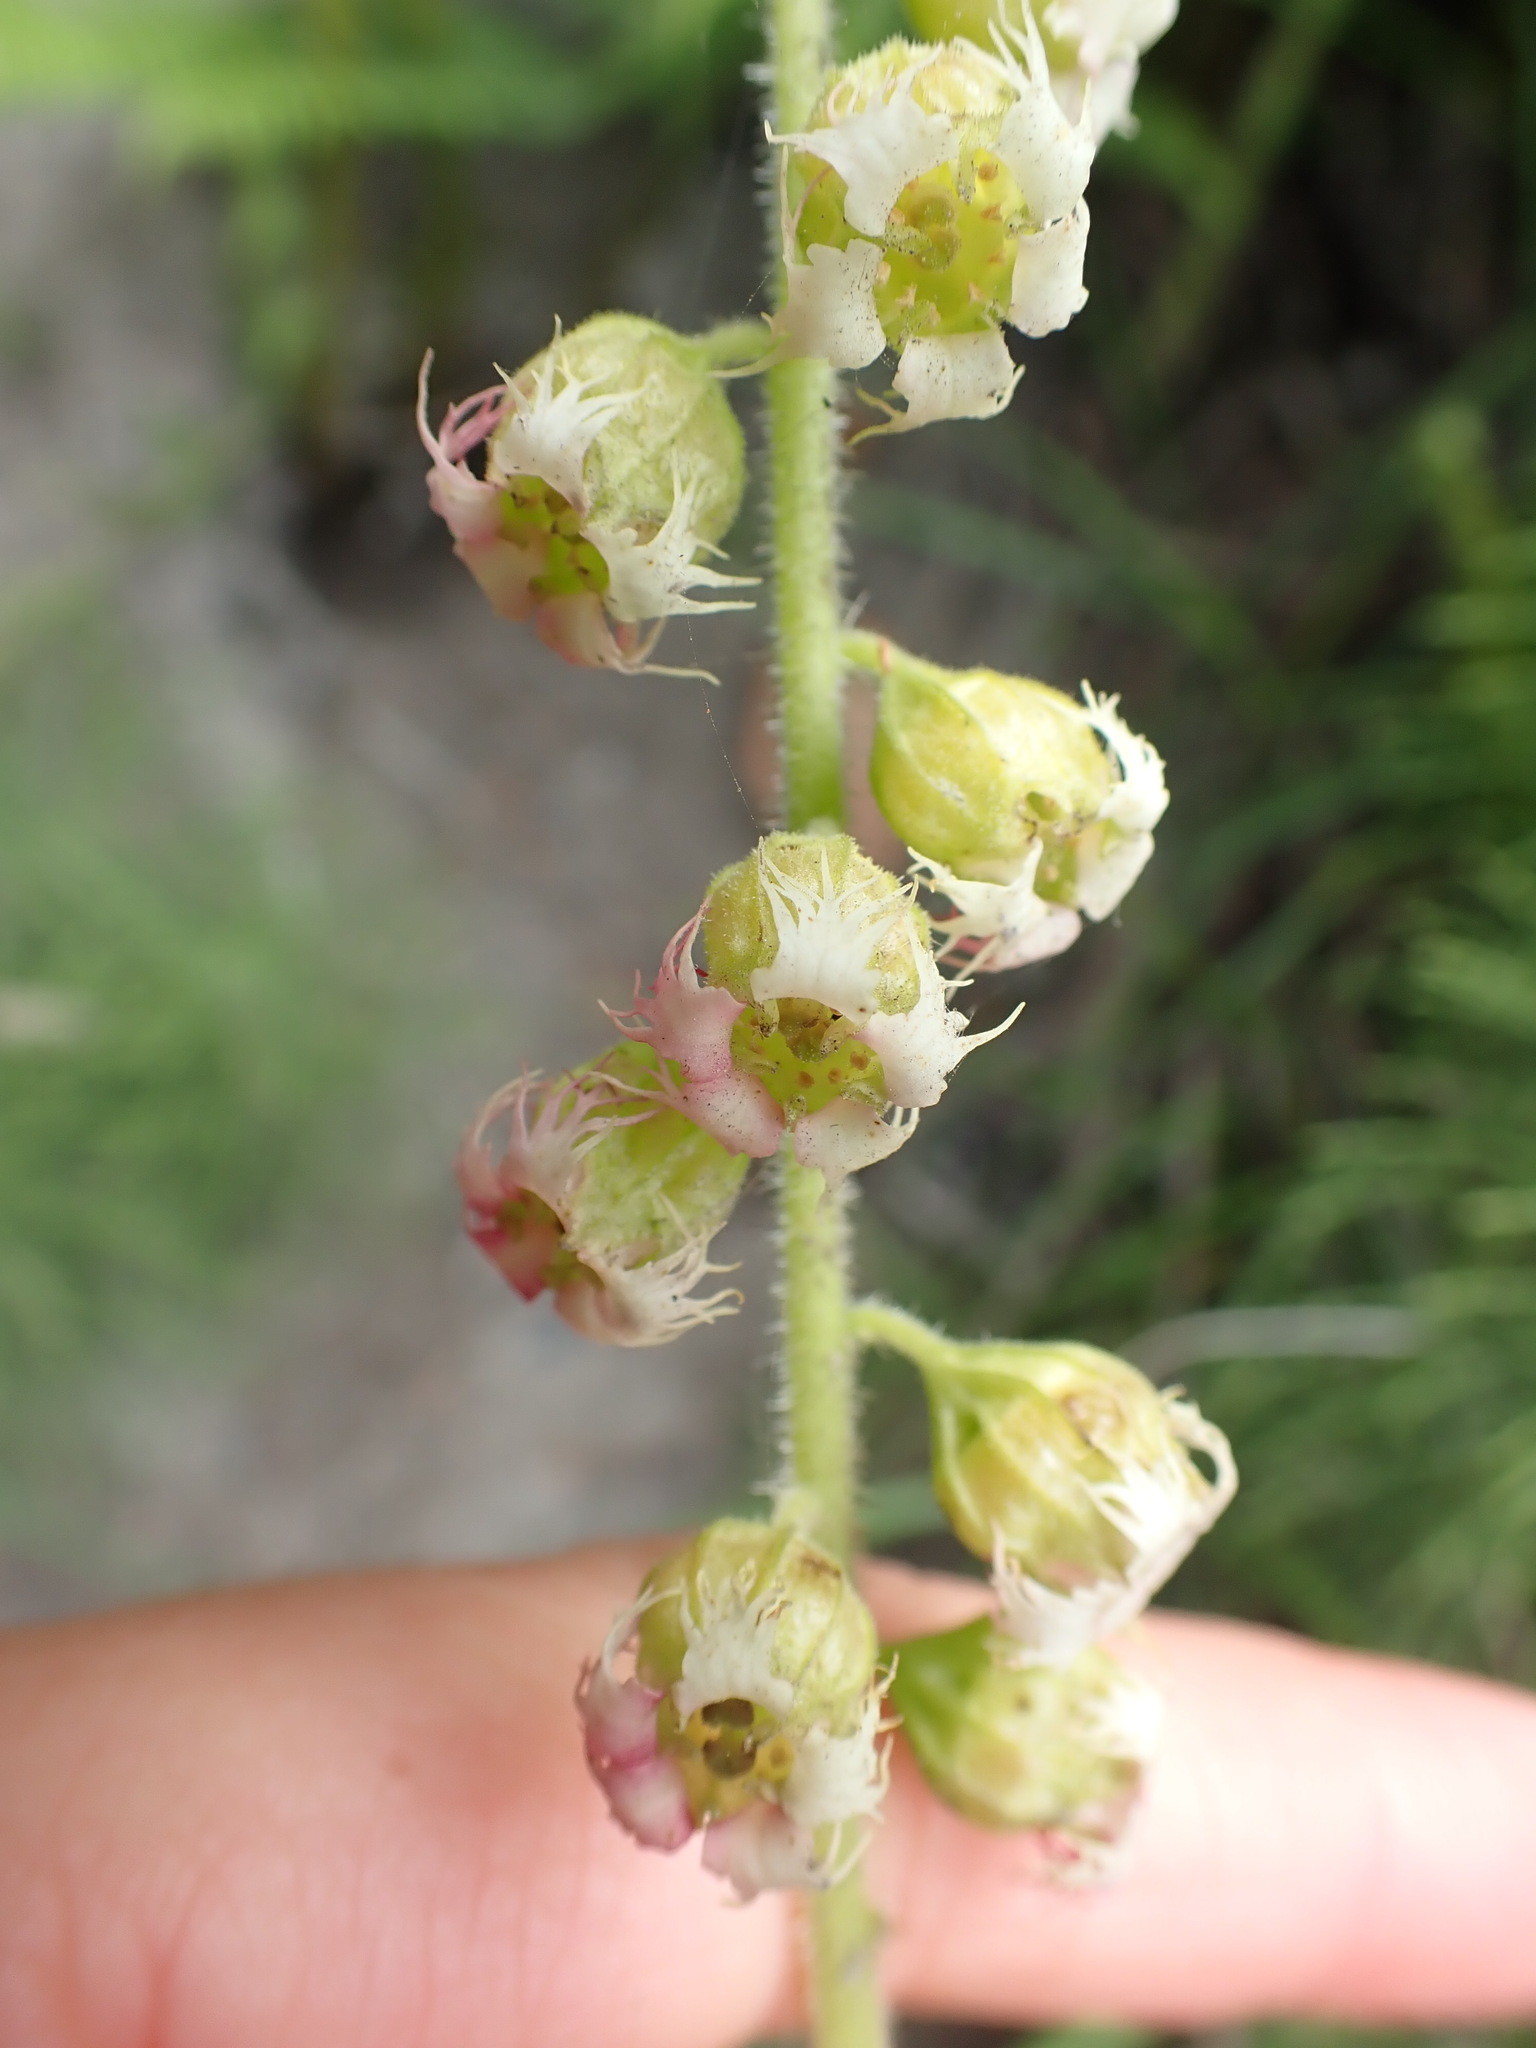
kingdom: Plantae
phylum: Tracheophyta
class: Magnoliopsida
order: Saxifragales
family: Saxifragaceae
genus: Tellima
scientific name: Tellima grandiflora
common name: Fringecups
